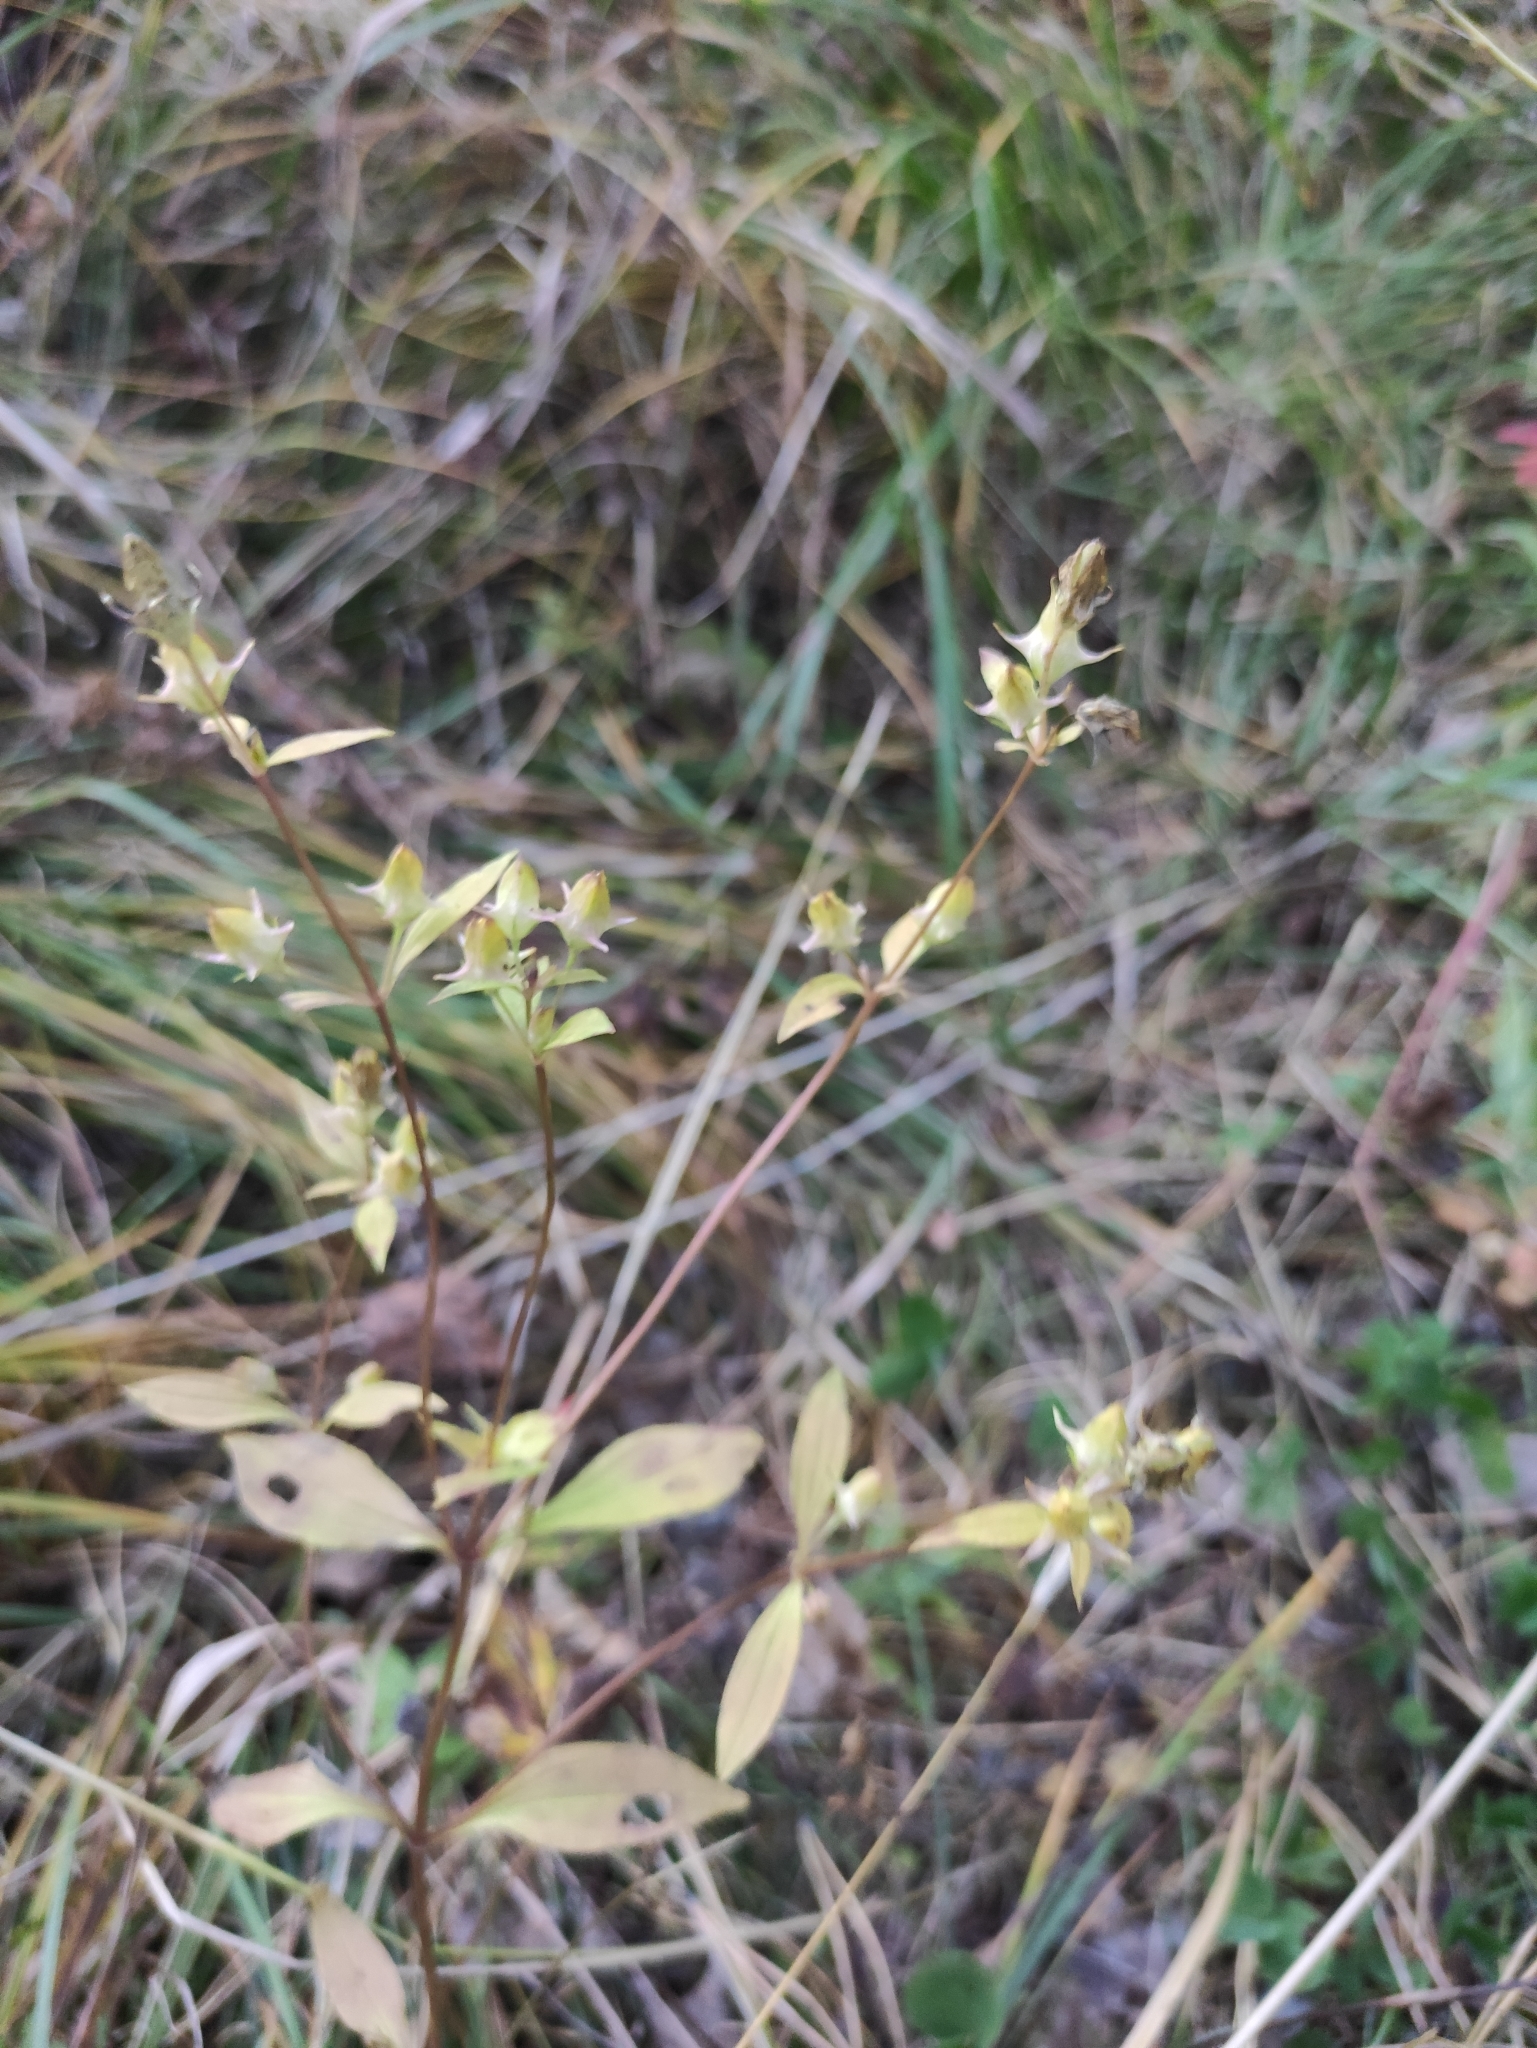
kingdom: Plantae
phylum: Tracheophyta
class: Magnoliopsida
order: Gentianales
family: Gentianaceae
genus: Halenia
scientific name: Halenia corniculata
